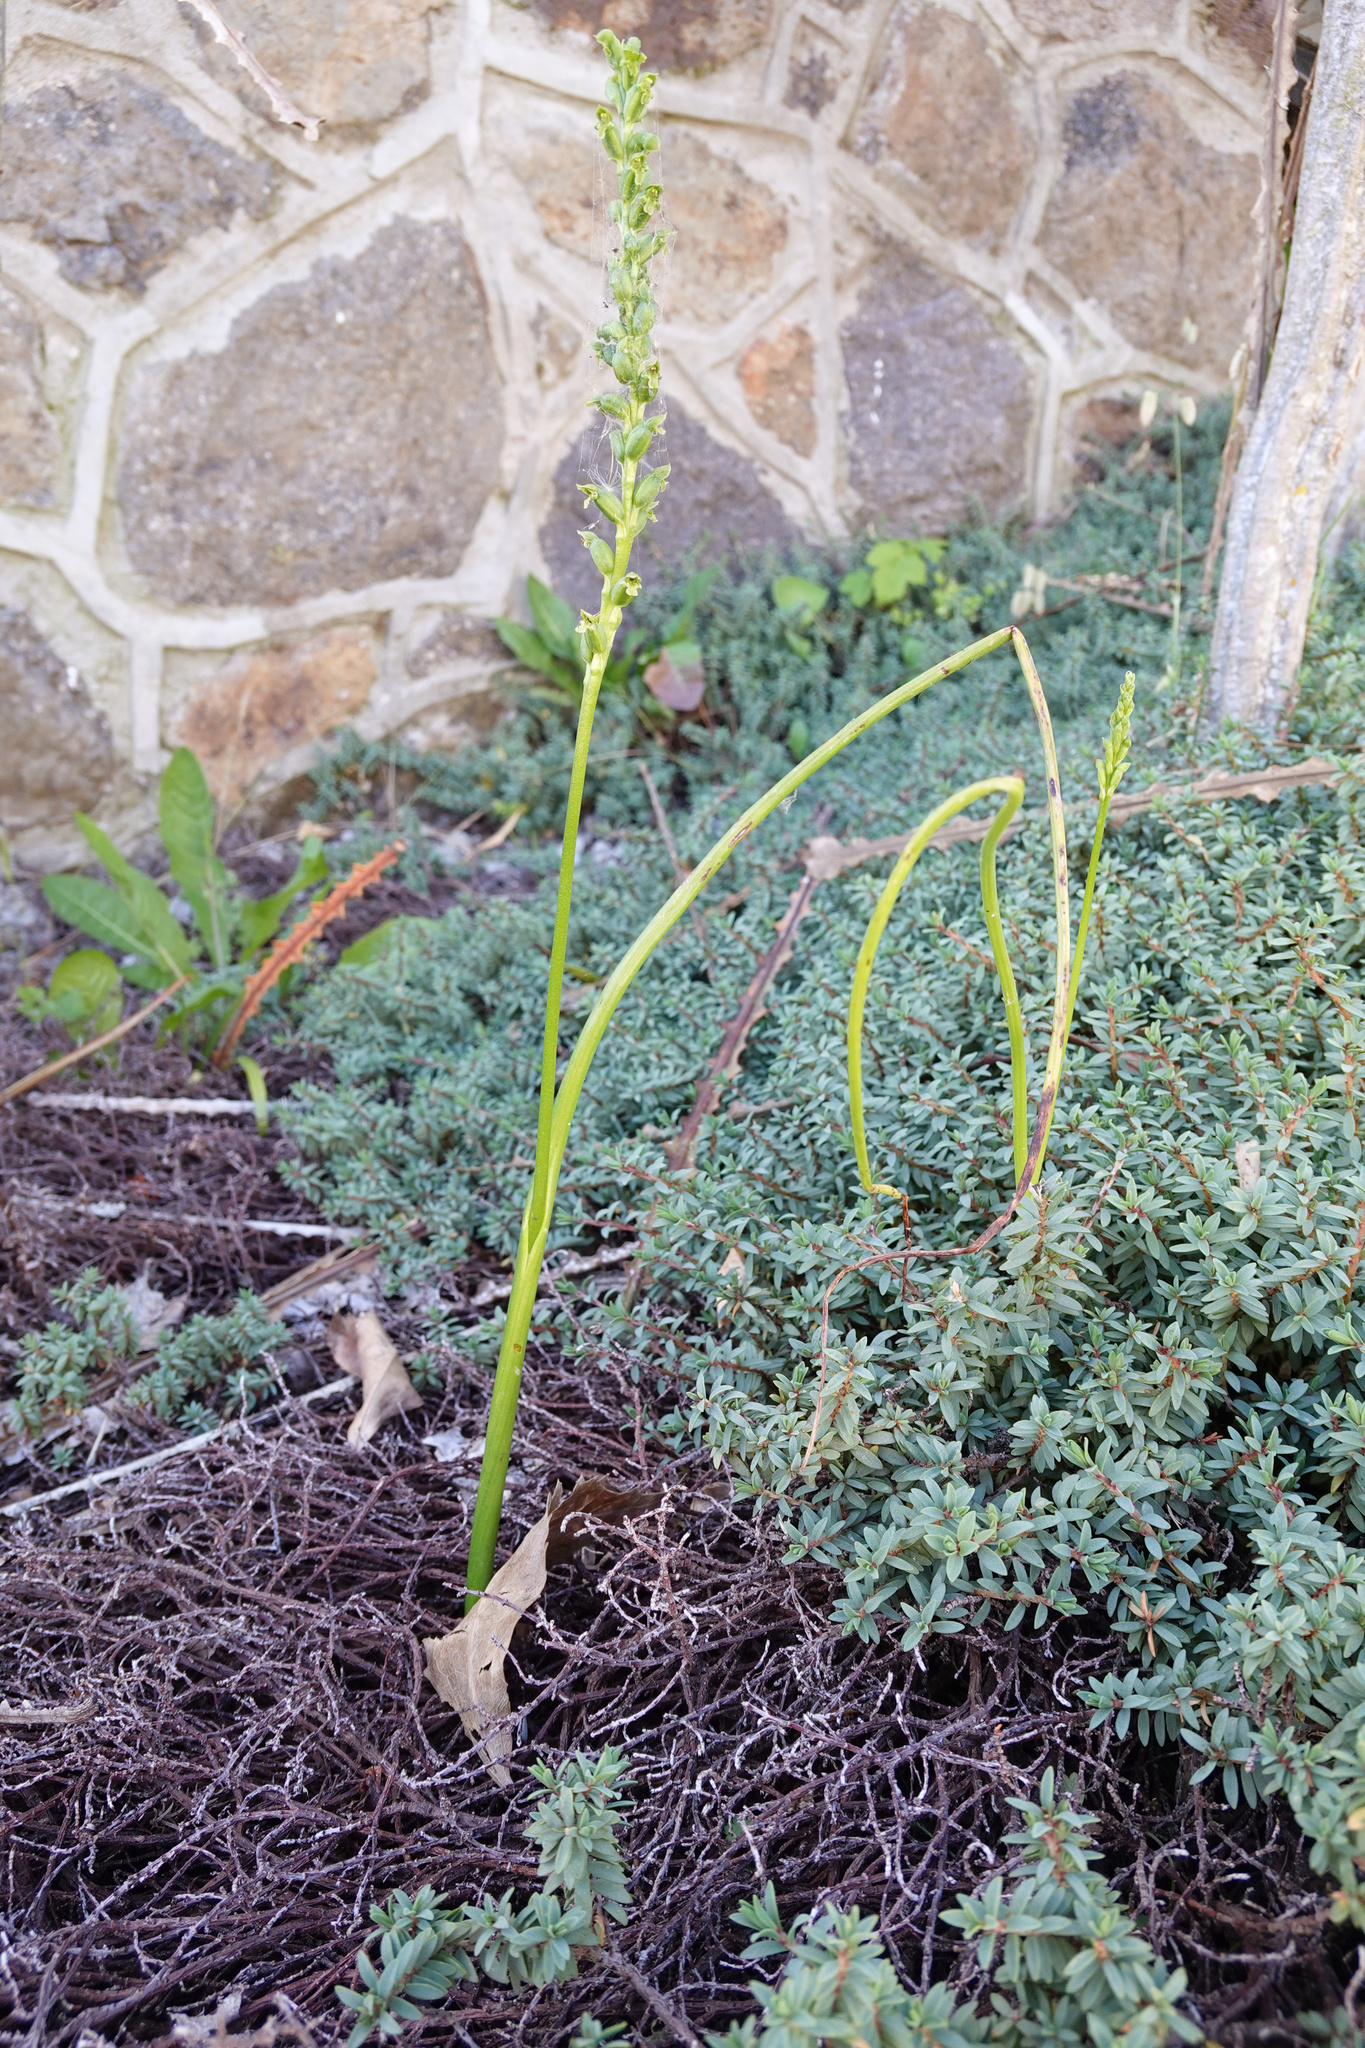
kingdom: Plantae
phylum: Tracheophyta
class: Liliopsida
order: Asparagales
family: Orchidaceae
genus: Microtis
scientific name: Microtis unifolia
